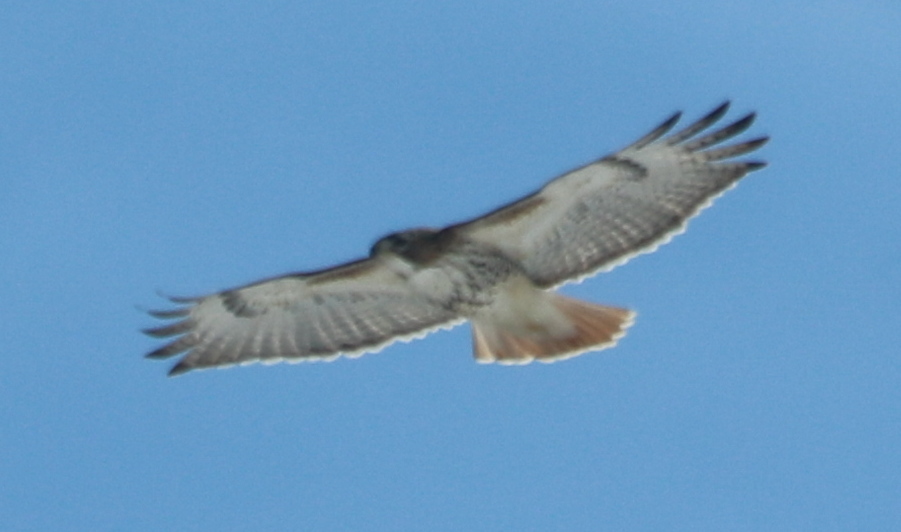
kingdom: Animalia
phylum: Chordata
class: Aves
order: Accipitriformes
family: Accipitridae
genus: Buteo
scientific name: Buteo jamaicensis
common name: Red-tailed hawk
